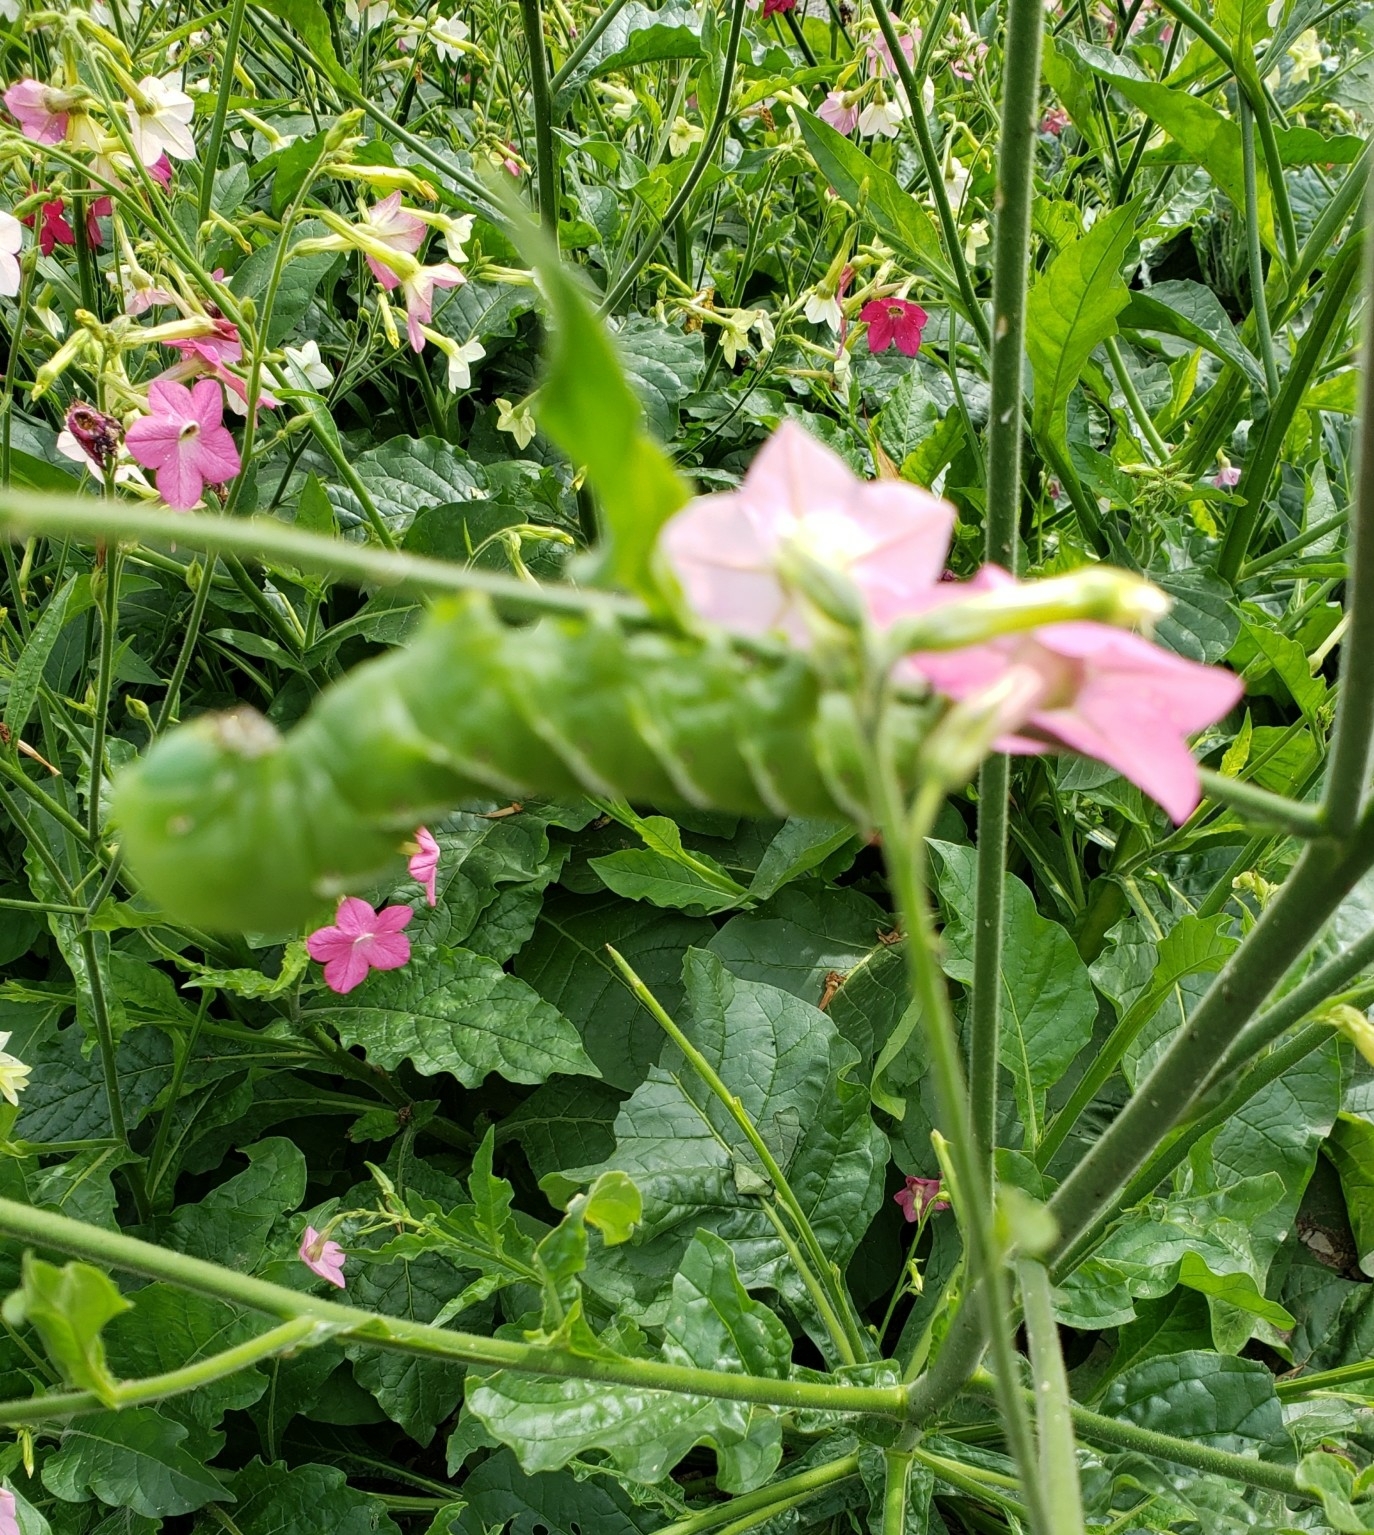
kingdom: Animalia
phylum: Arthropoda
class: Insecta
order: Lepidoptera
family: Sphingidae
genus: Manduca
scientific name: Manduca sexta
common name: Carolina sphinx
